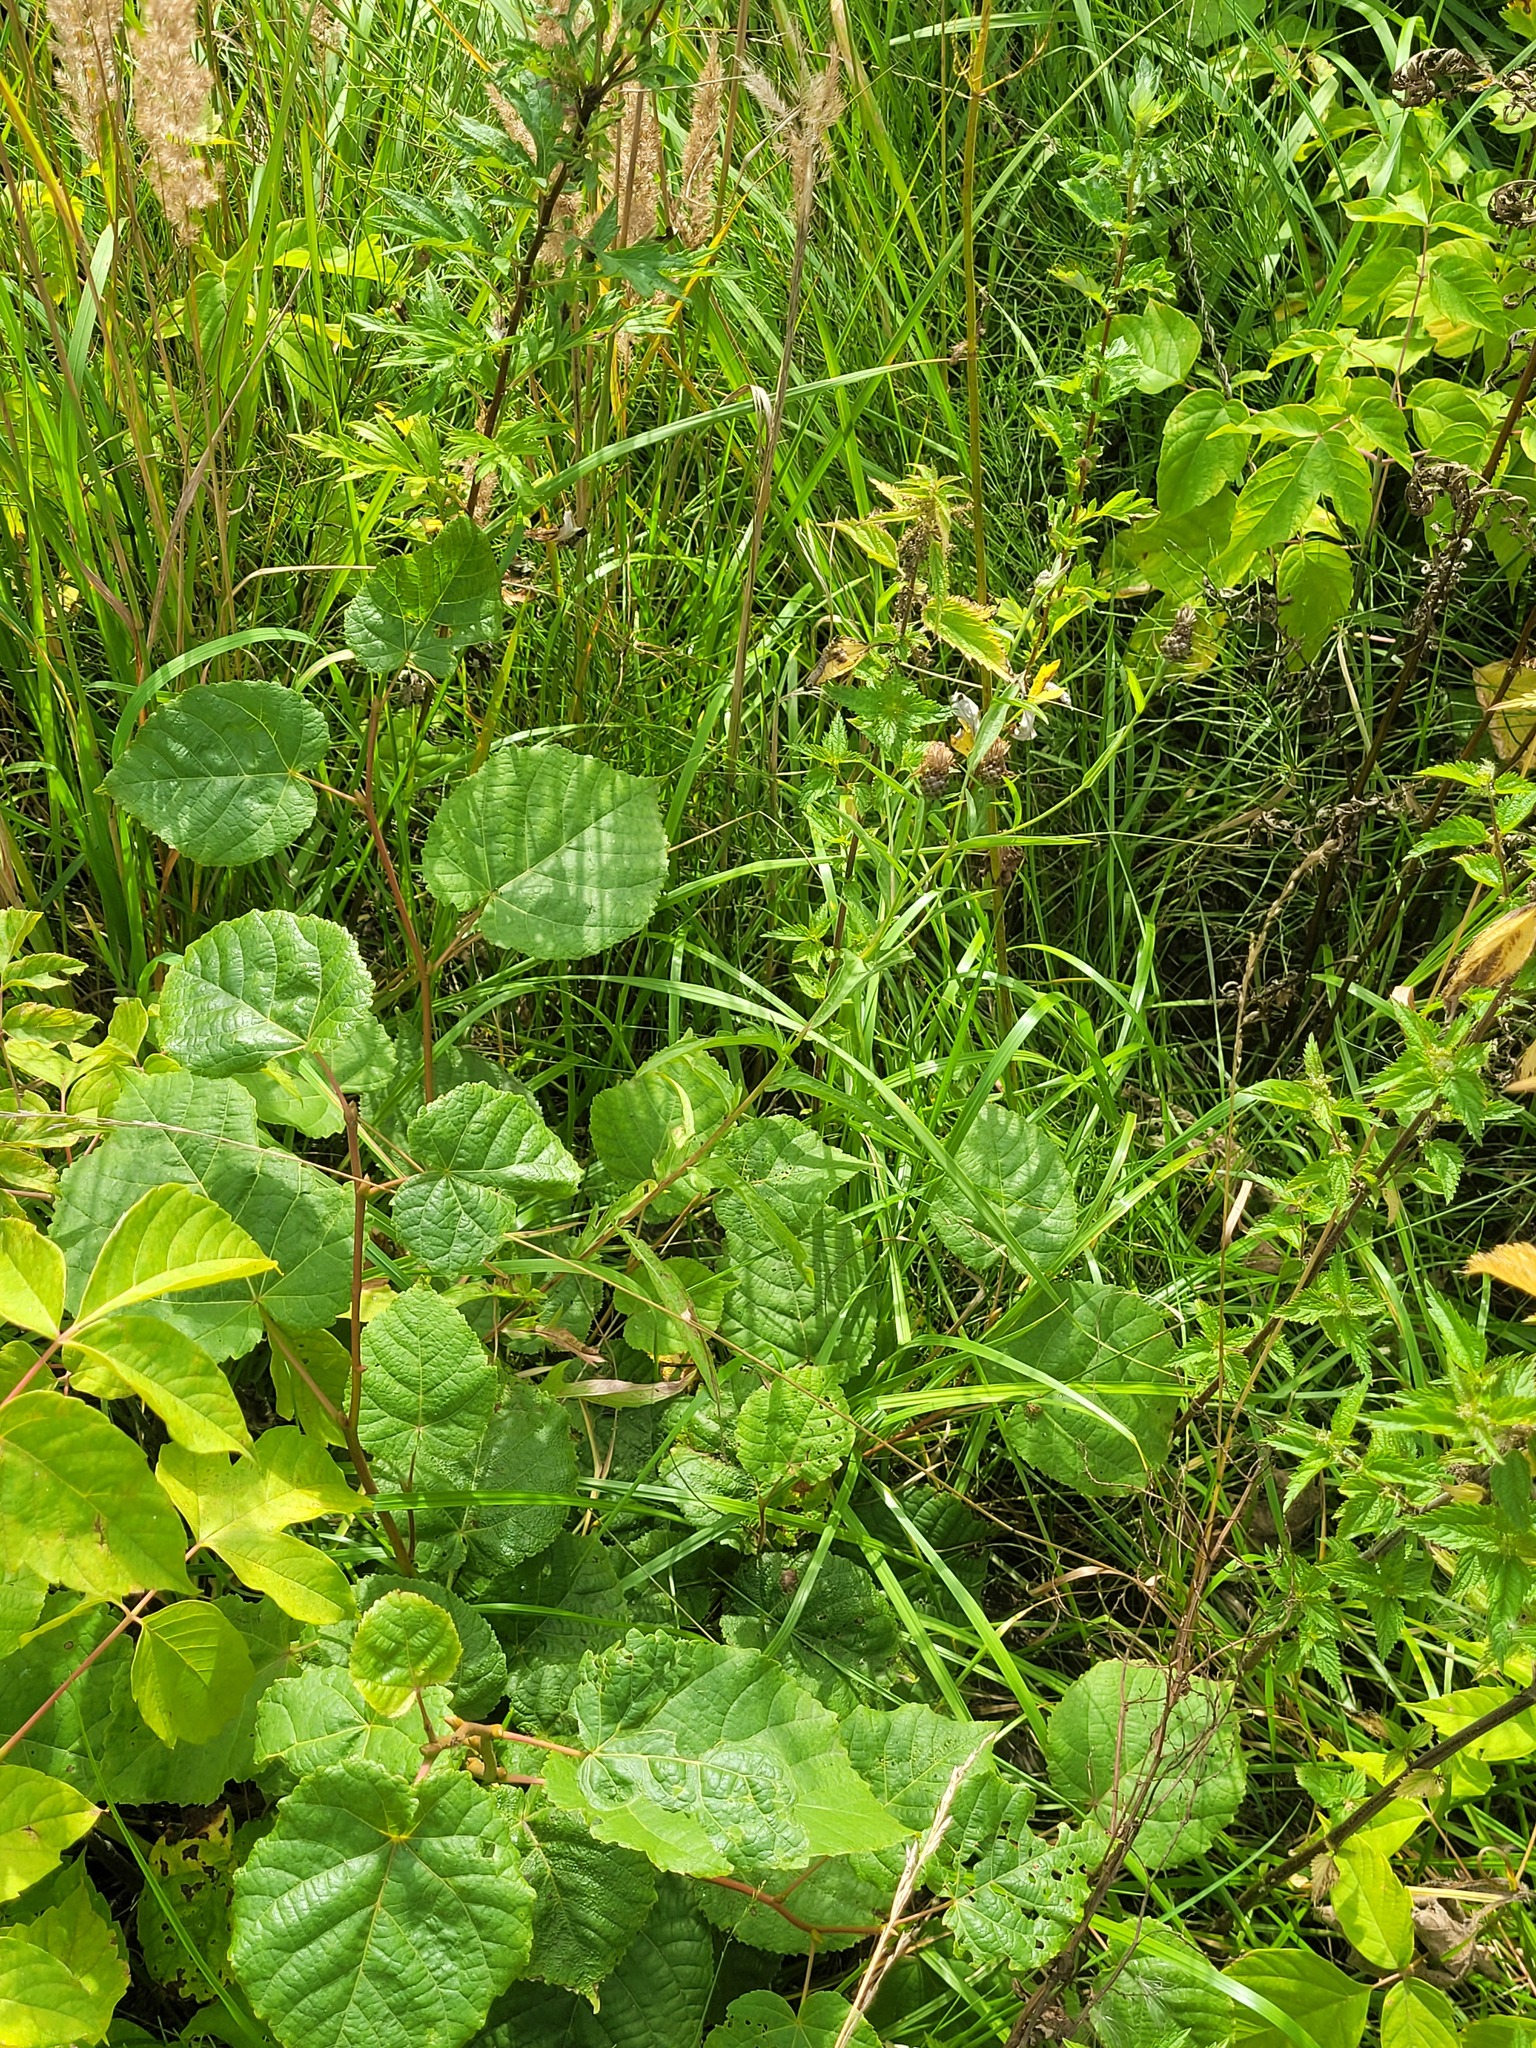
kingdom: Plantae
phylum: Tracheophyta
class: Magnoliopsida
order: Malvales
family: Malvaceae
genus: Tilia
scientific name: Tilia cordata
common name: Small-leaved lime
